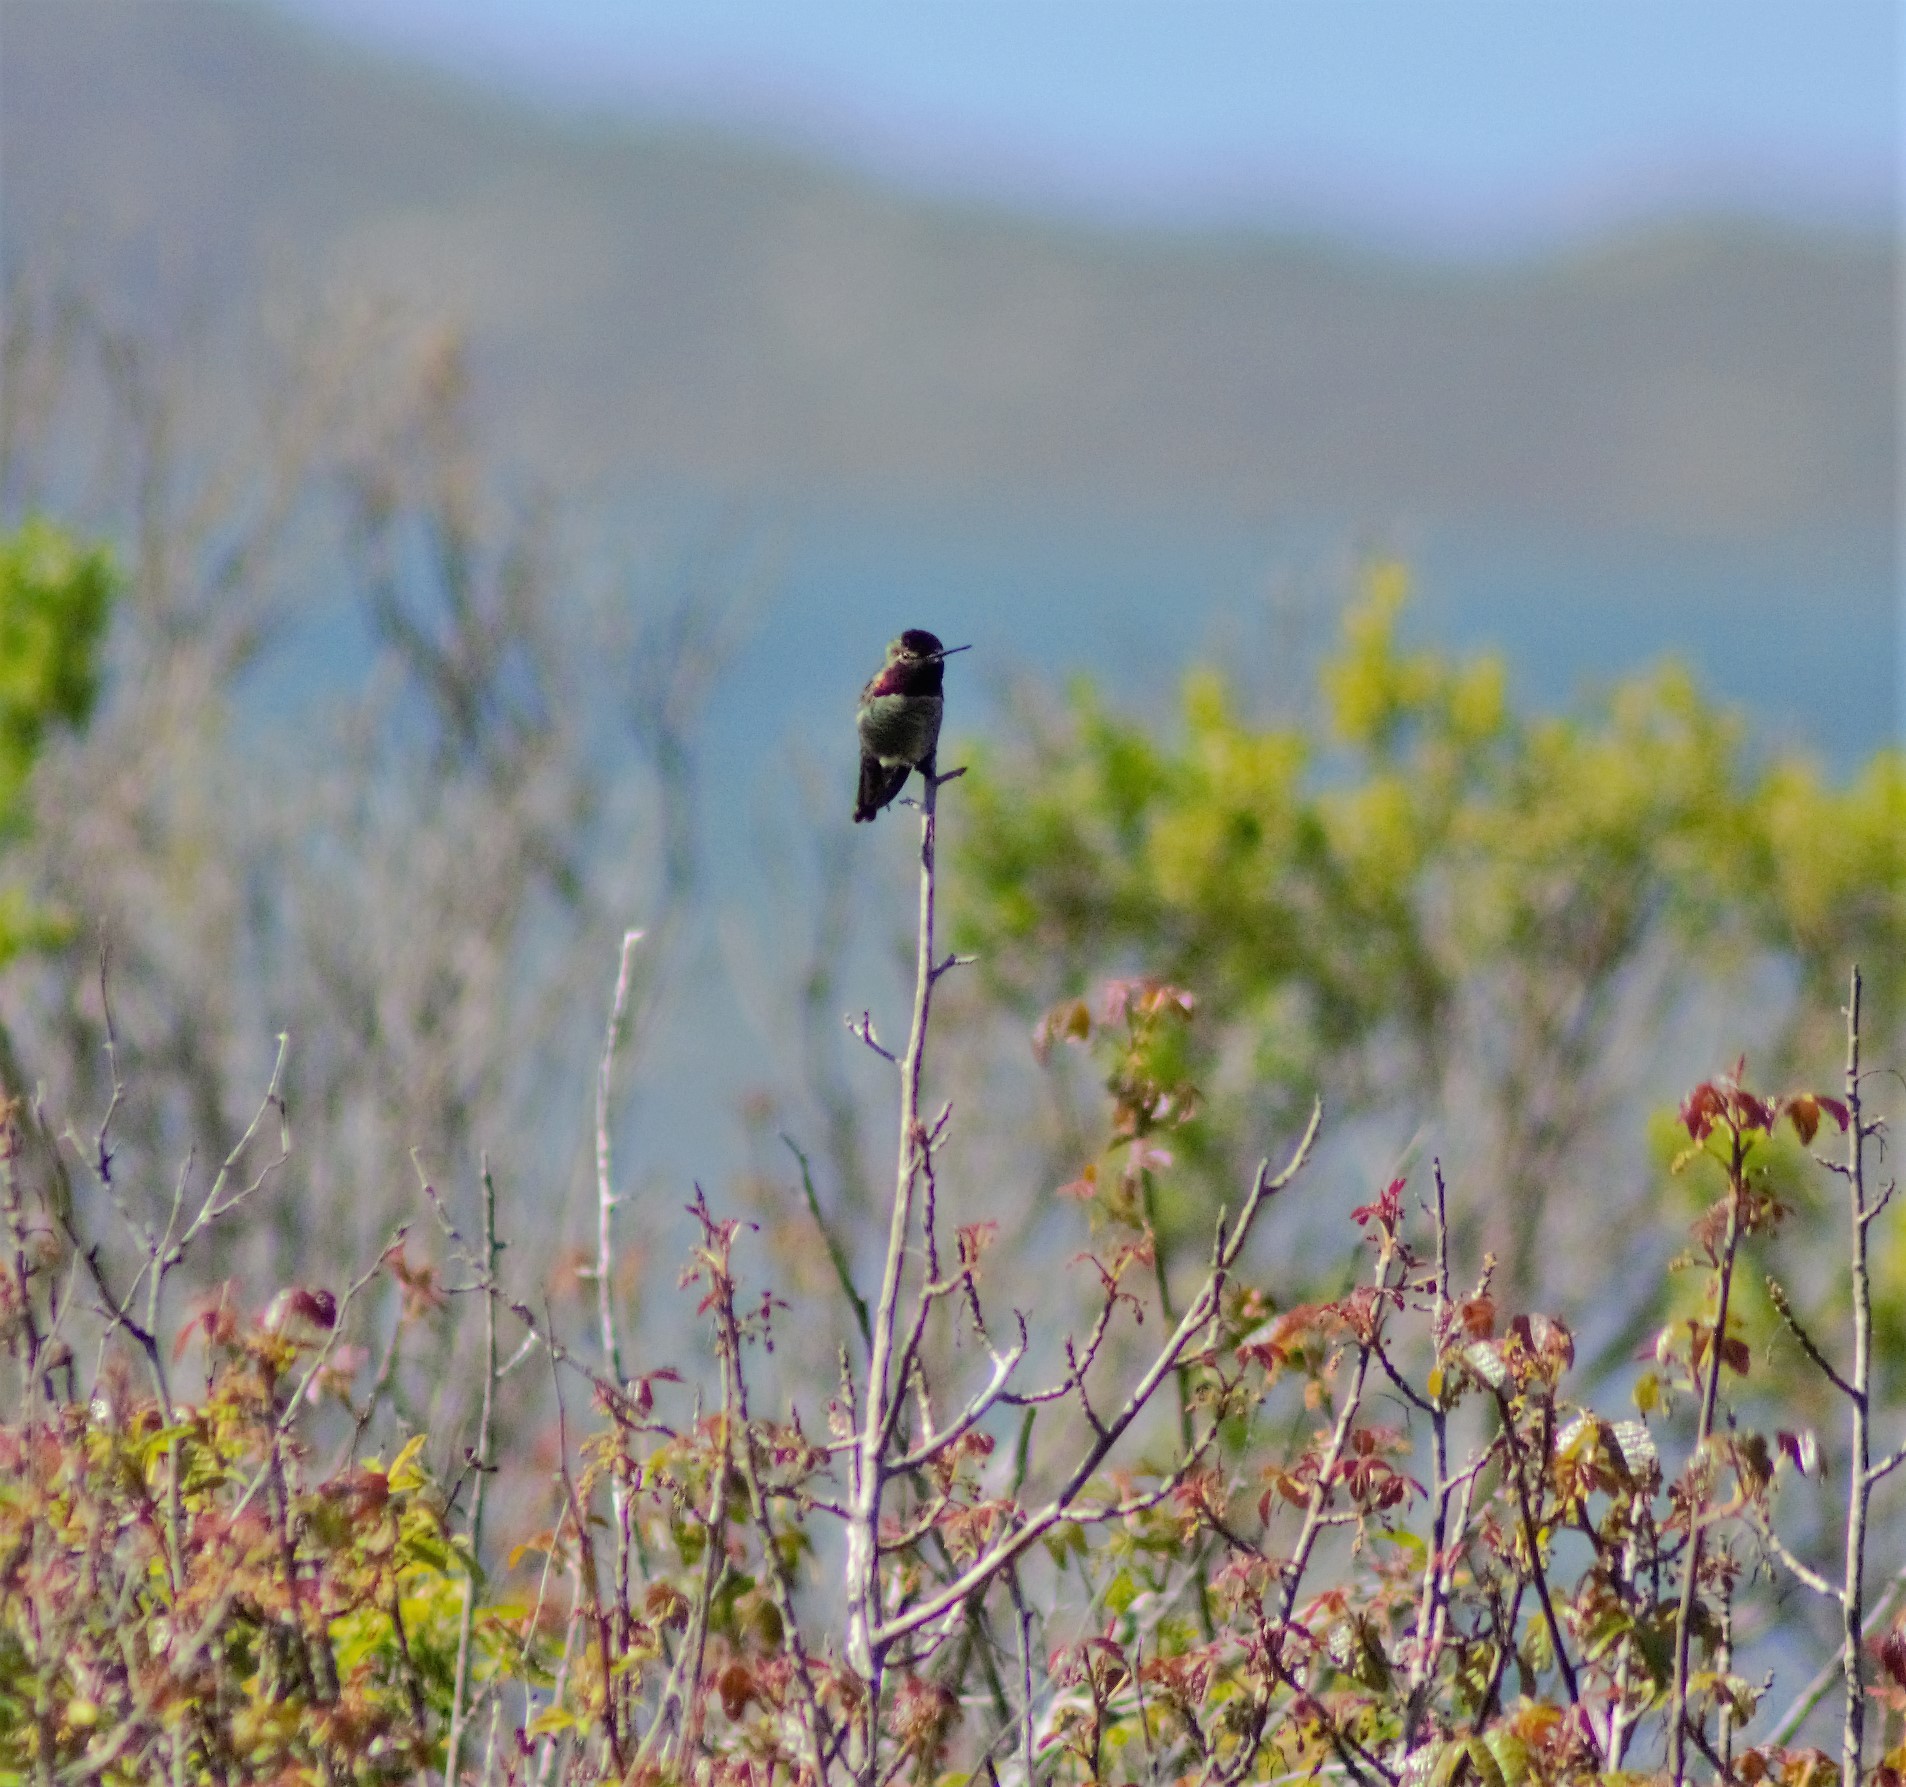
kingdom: Animalia
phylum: Chordata
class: Aves
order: Apodiformes
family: Trochilidae
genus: Calypte
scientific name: Calypte anna
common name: Anna's hummingbird
